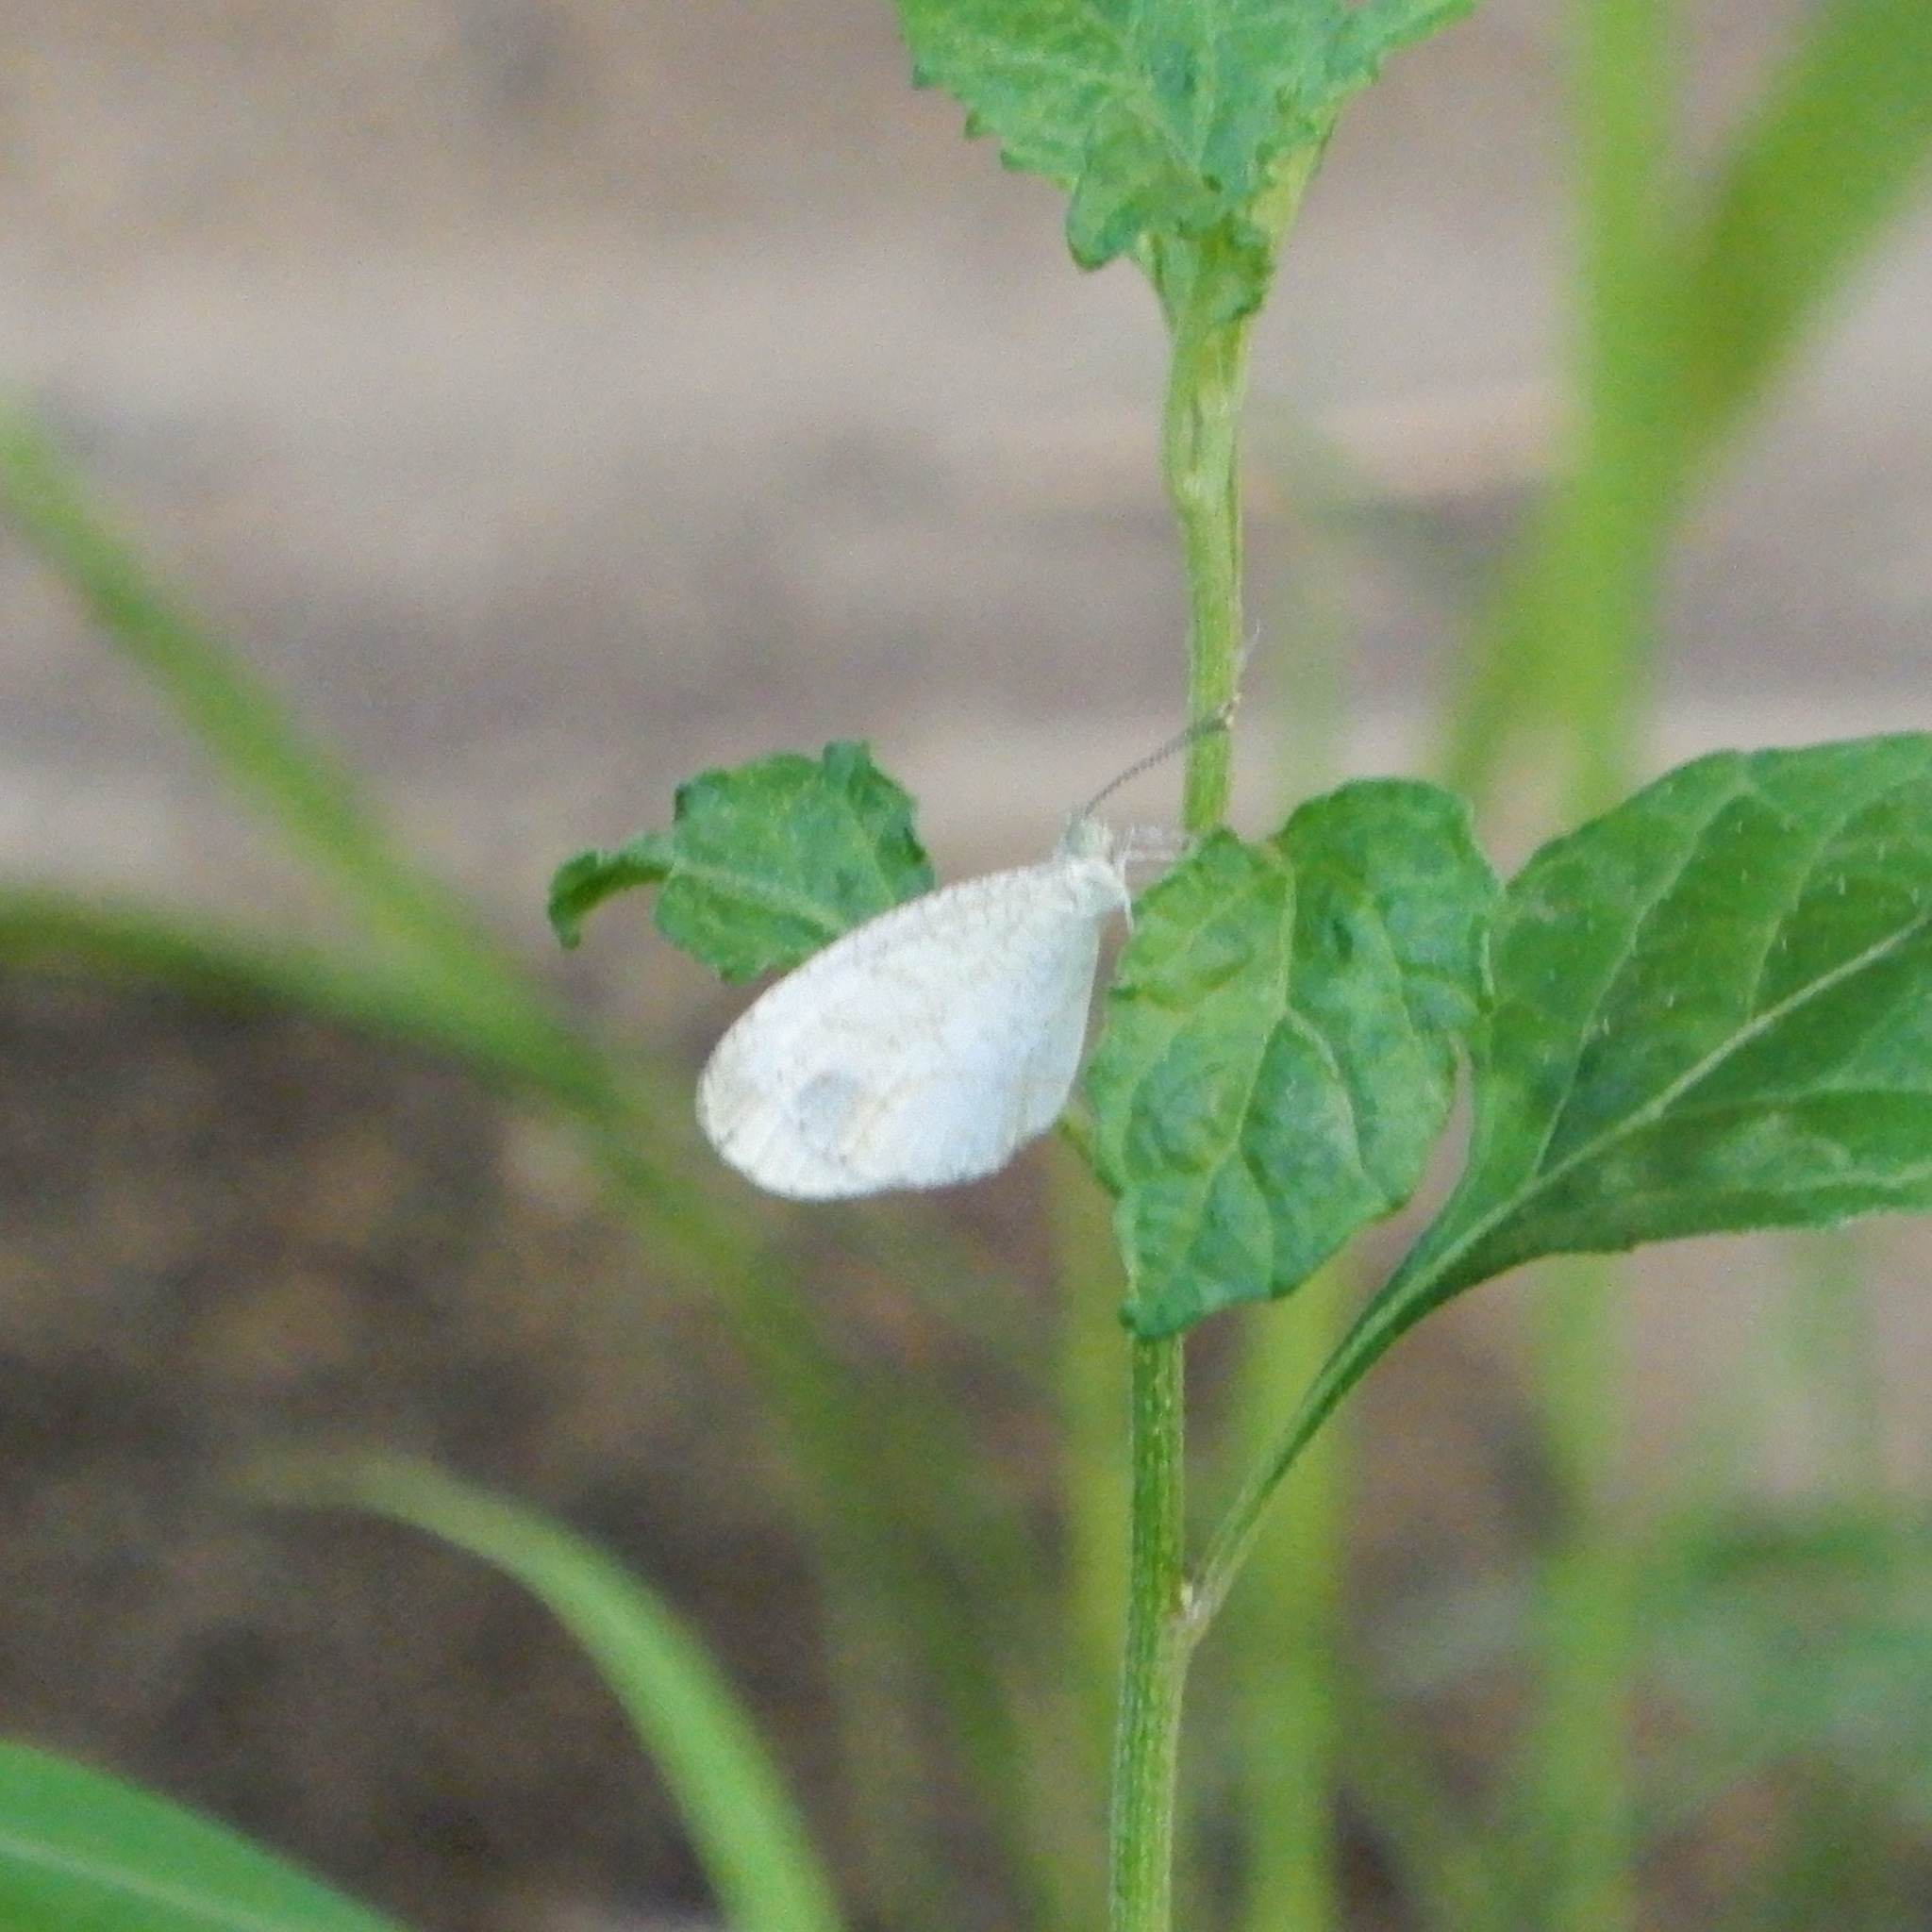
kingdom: Animalia
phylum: Arthropoda
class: Insecta
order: Lepidoptera
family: Pieridae
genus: Leptosia
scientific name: Leptosia nina
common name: Psyche
